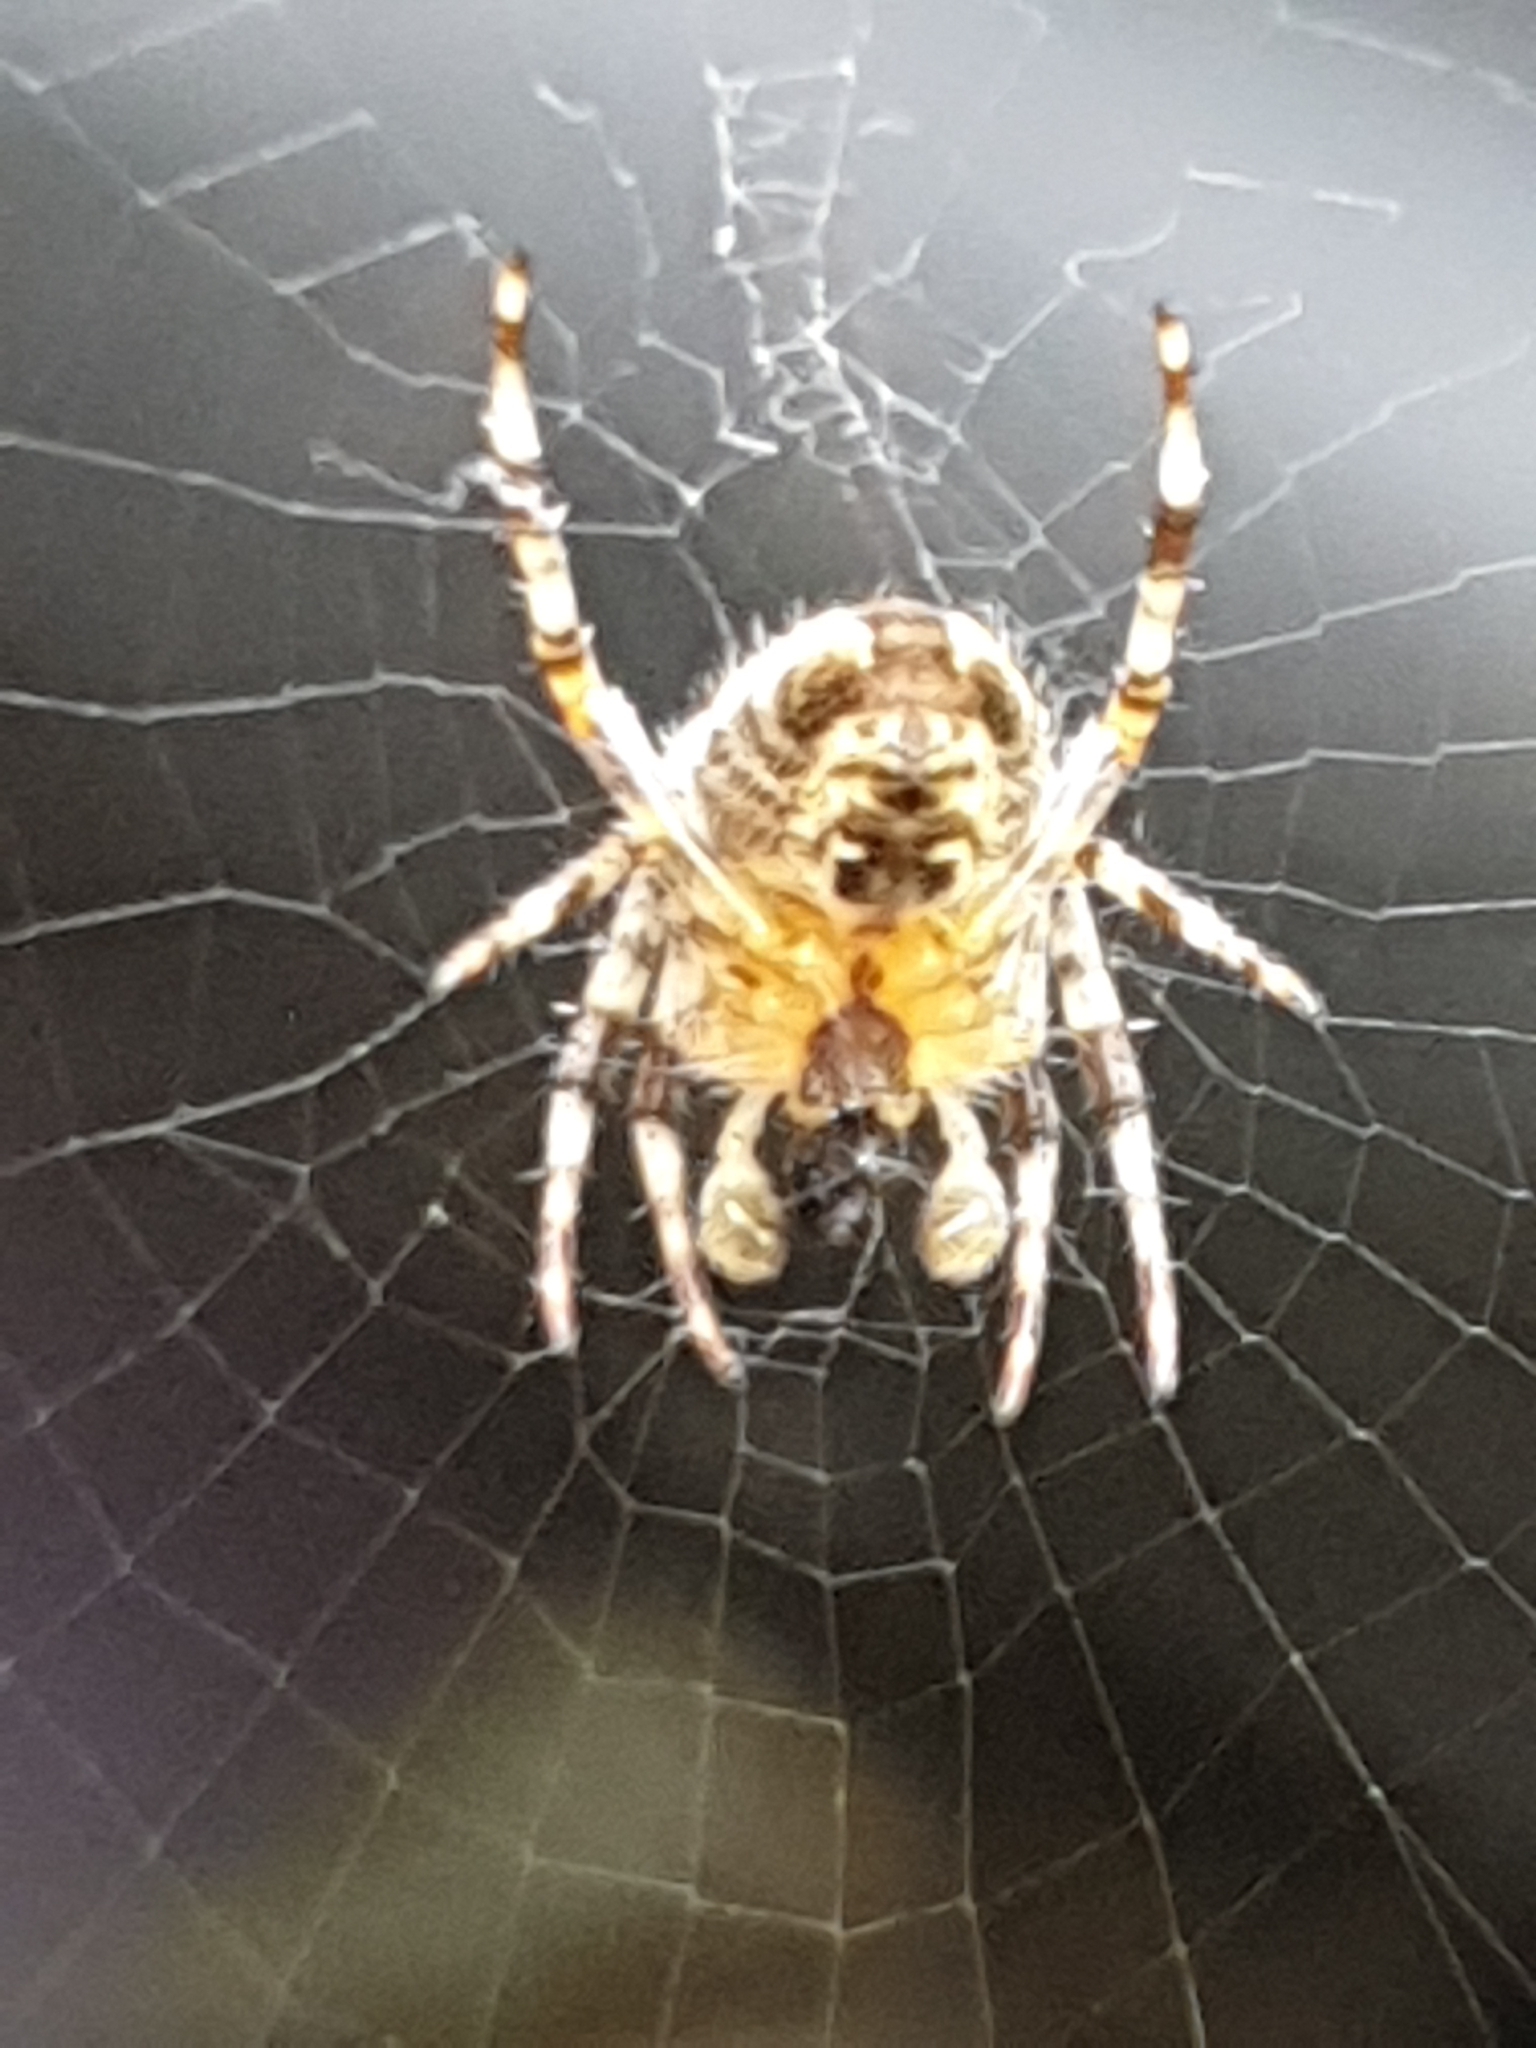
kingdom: Animalia
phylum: Arthropoda
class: Arachnida
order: Araneae
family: Araneidae
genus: Araneus
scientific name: Araneus diadematus
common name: Cross orbweaver
